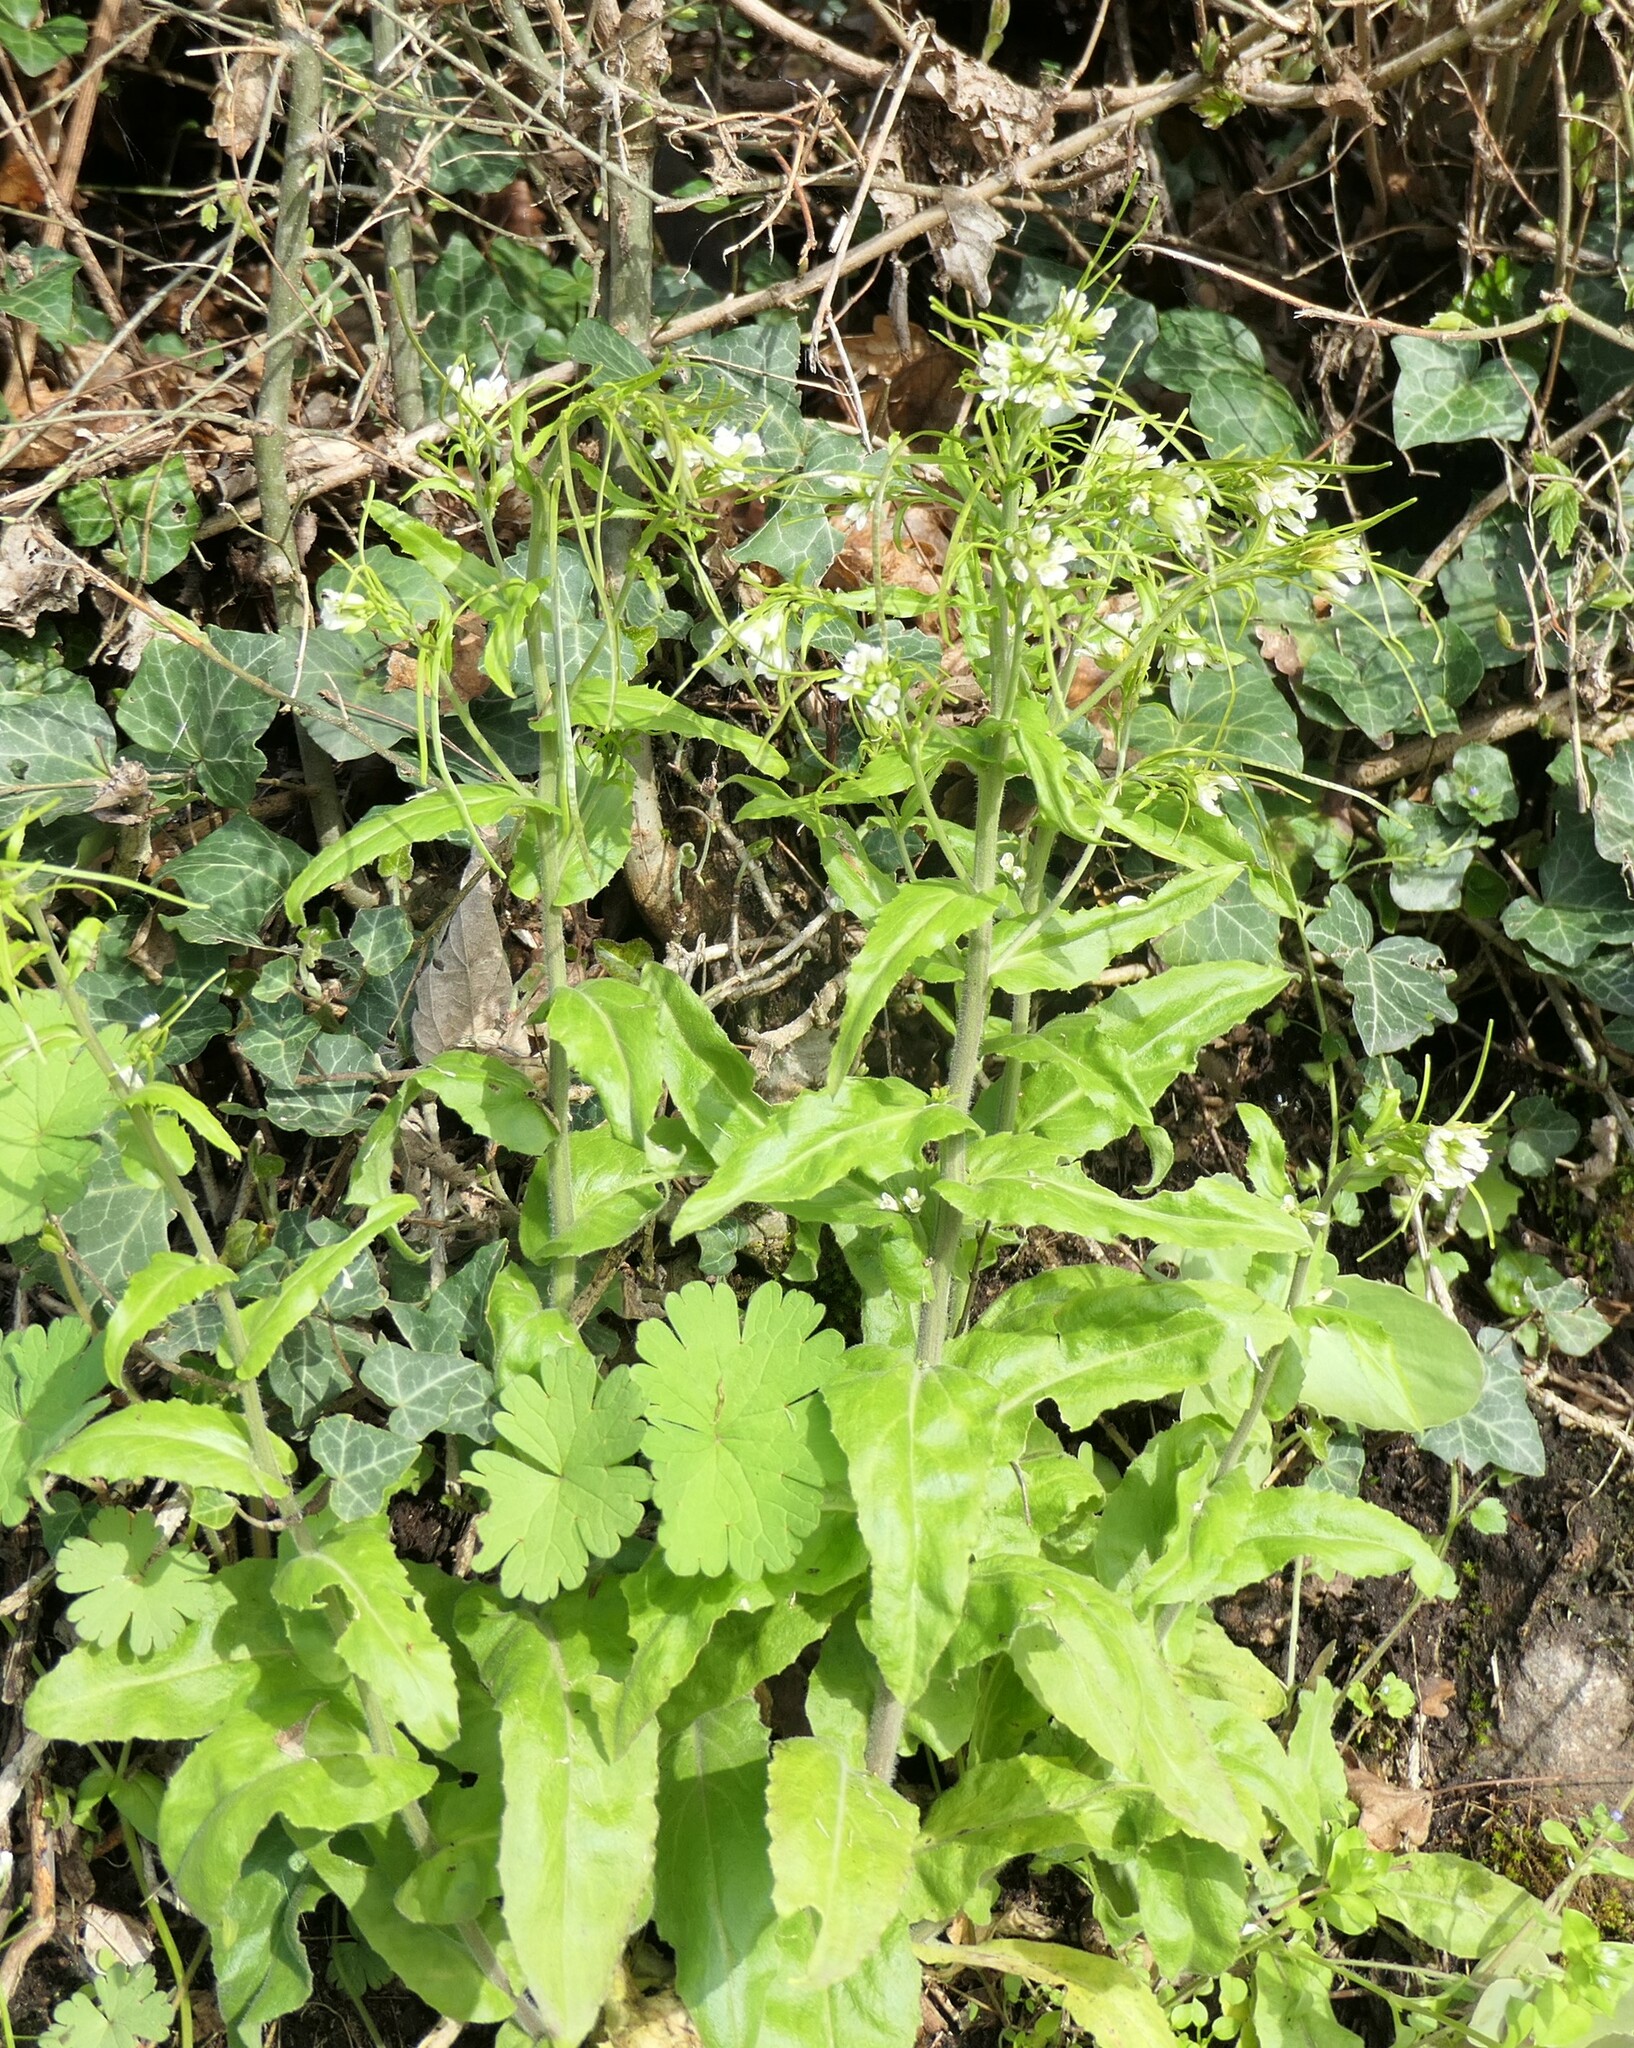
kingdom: Plantae
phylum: Tracheophyta
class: Magnoliopsida
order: Brassicales
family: Brassicaceae
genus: Pseudoturritis
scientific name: Pseudoturritis turrita
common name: Tower cress
